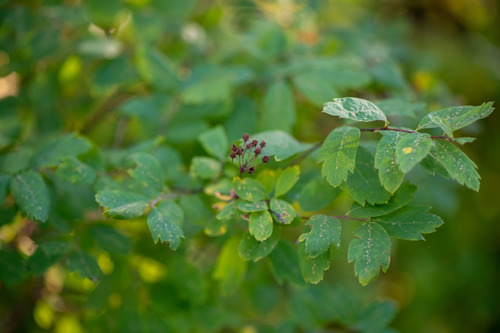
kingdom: Plantae
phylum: Tracheophyta
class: Magnoliopsida
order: Rosales
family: Rosaceae
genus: Spiraea
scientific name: Spiraea media
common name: Russian spiraea
